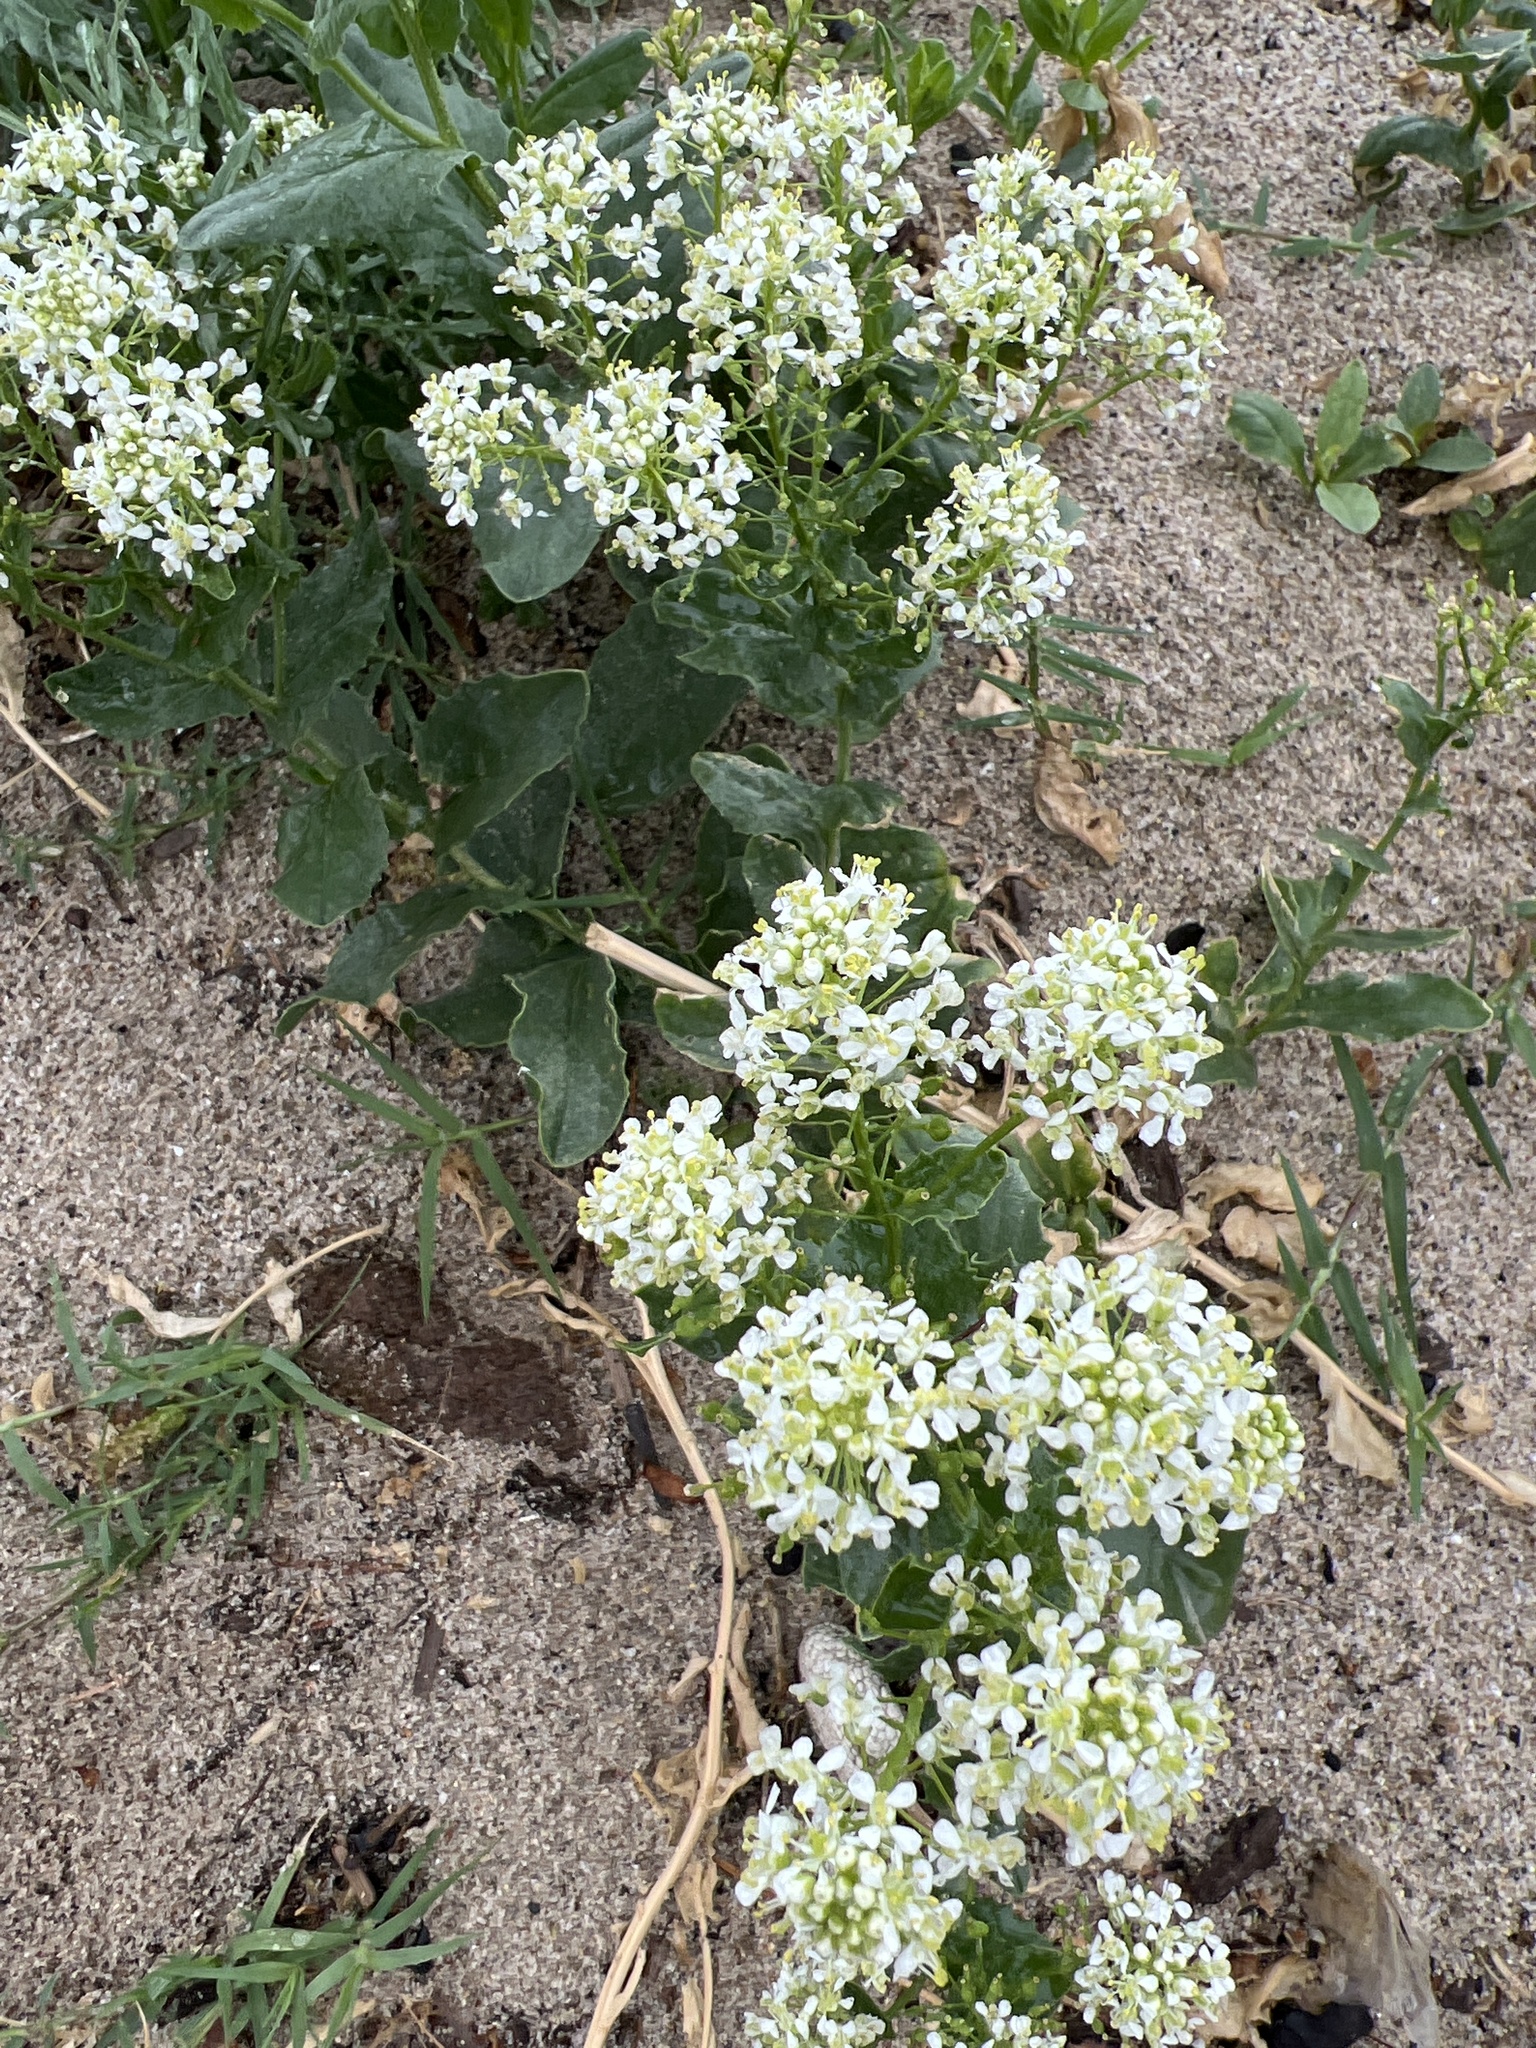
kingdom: Plantae
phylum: Tracheophyta
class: Magnoliopsida
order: Brassicales
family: Brassicaceae
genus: Lepidium
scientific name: Lepidium draba
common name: Hoary cress
